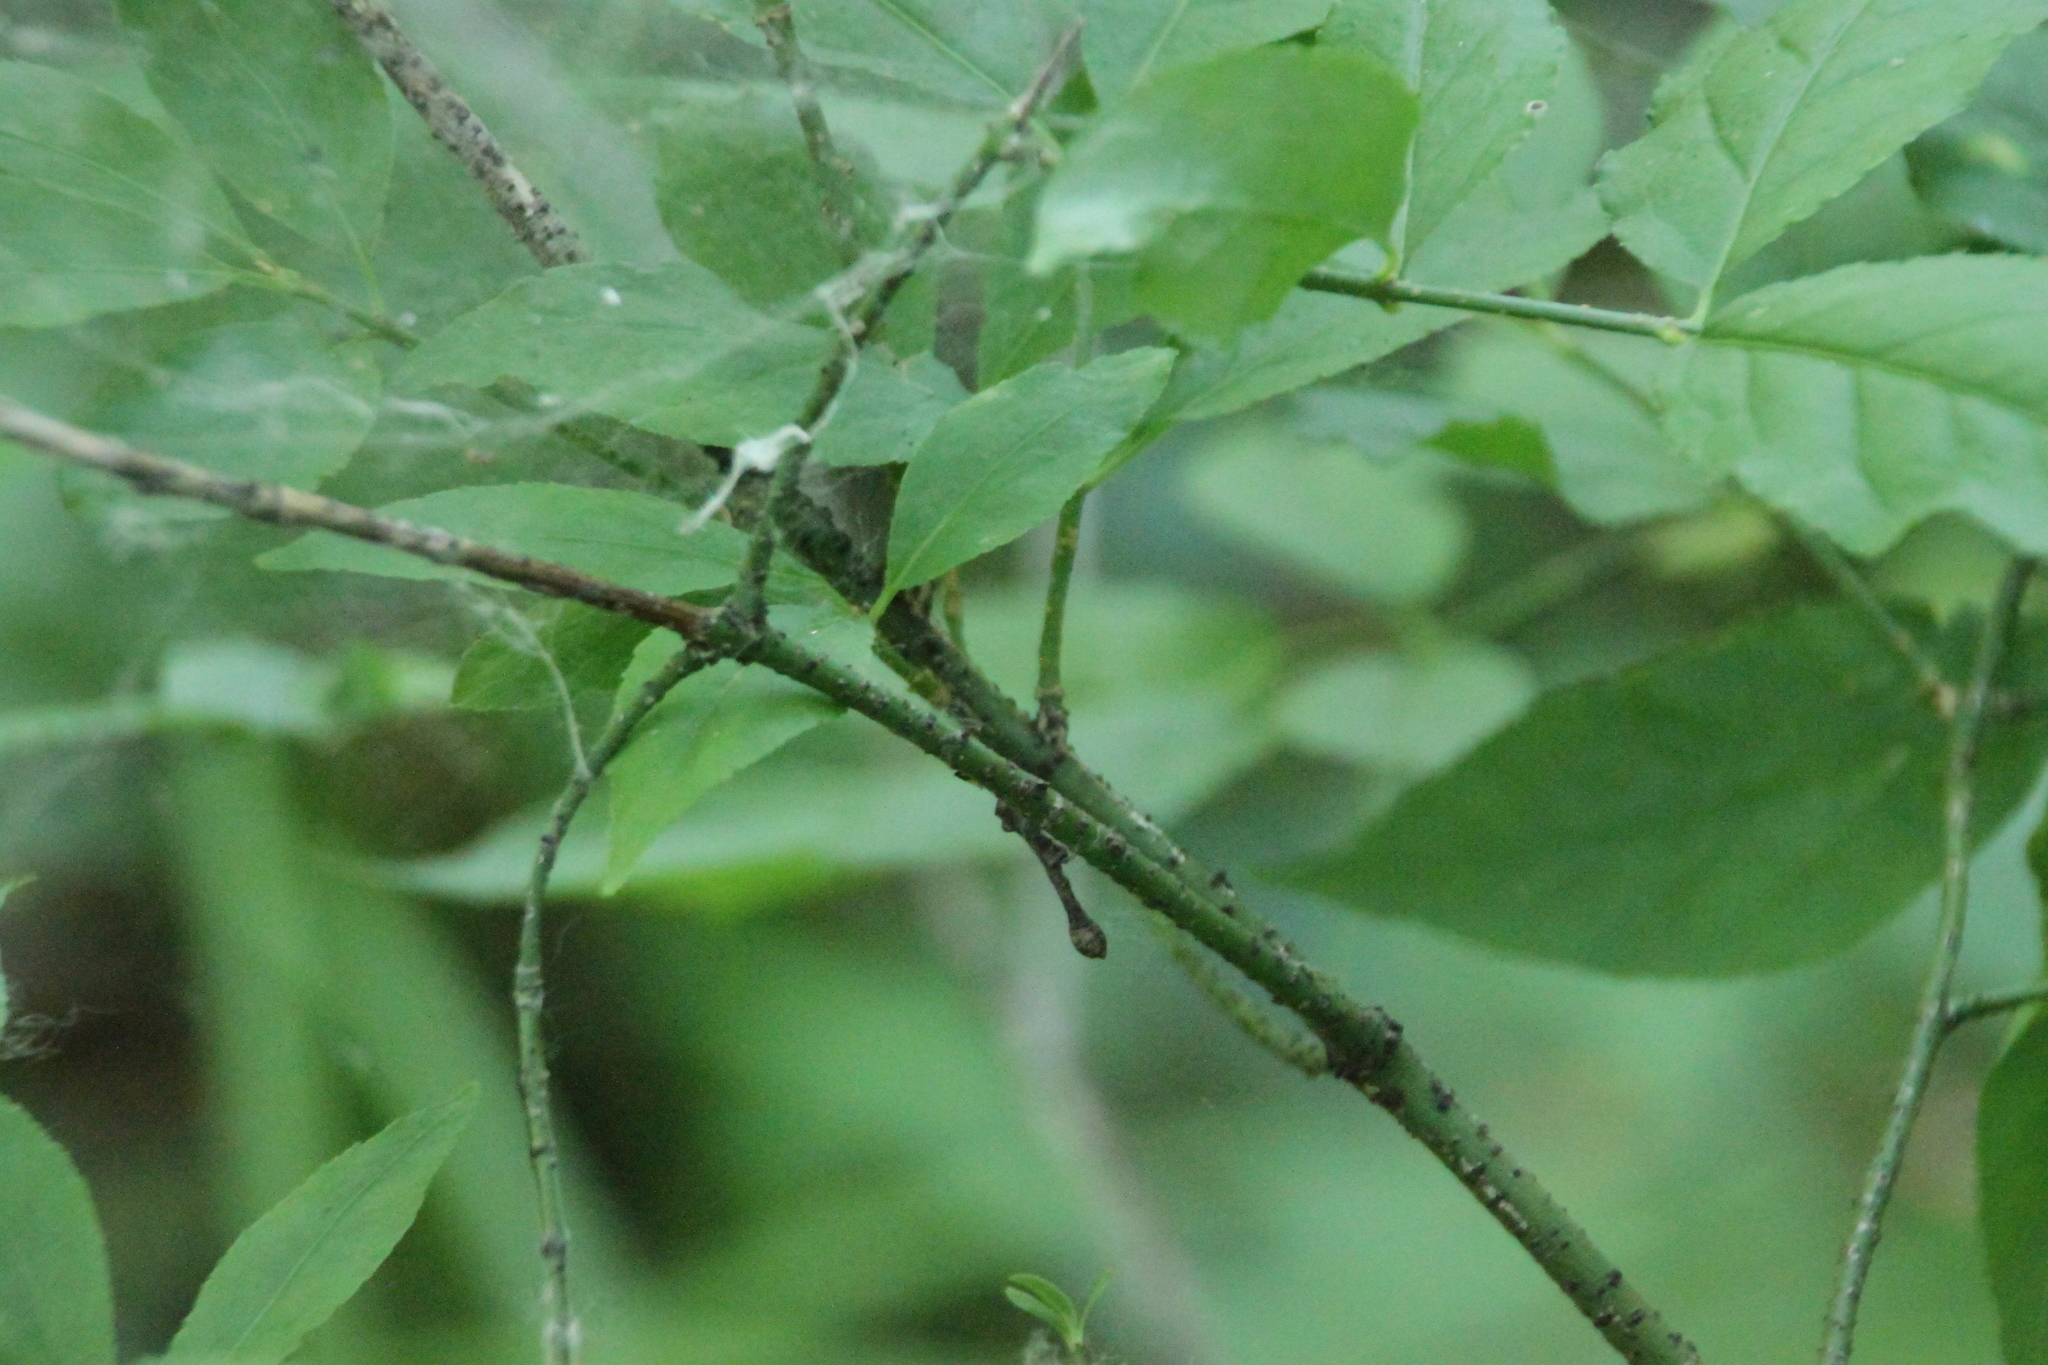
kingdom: Plantae
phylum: Tracheophyta
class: Magnoliopsida
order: Celastrales
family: Celastraceae
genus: Euonymus
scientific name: Euonymus verrucosus
